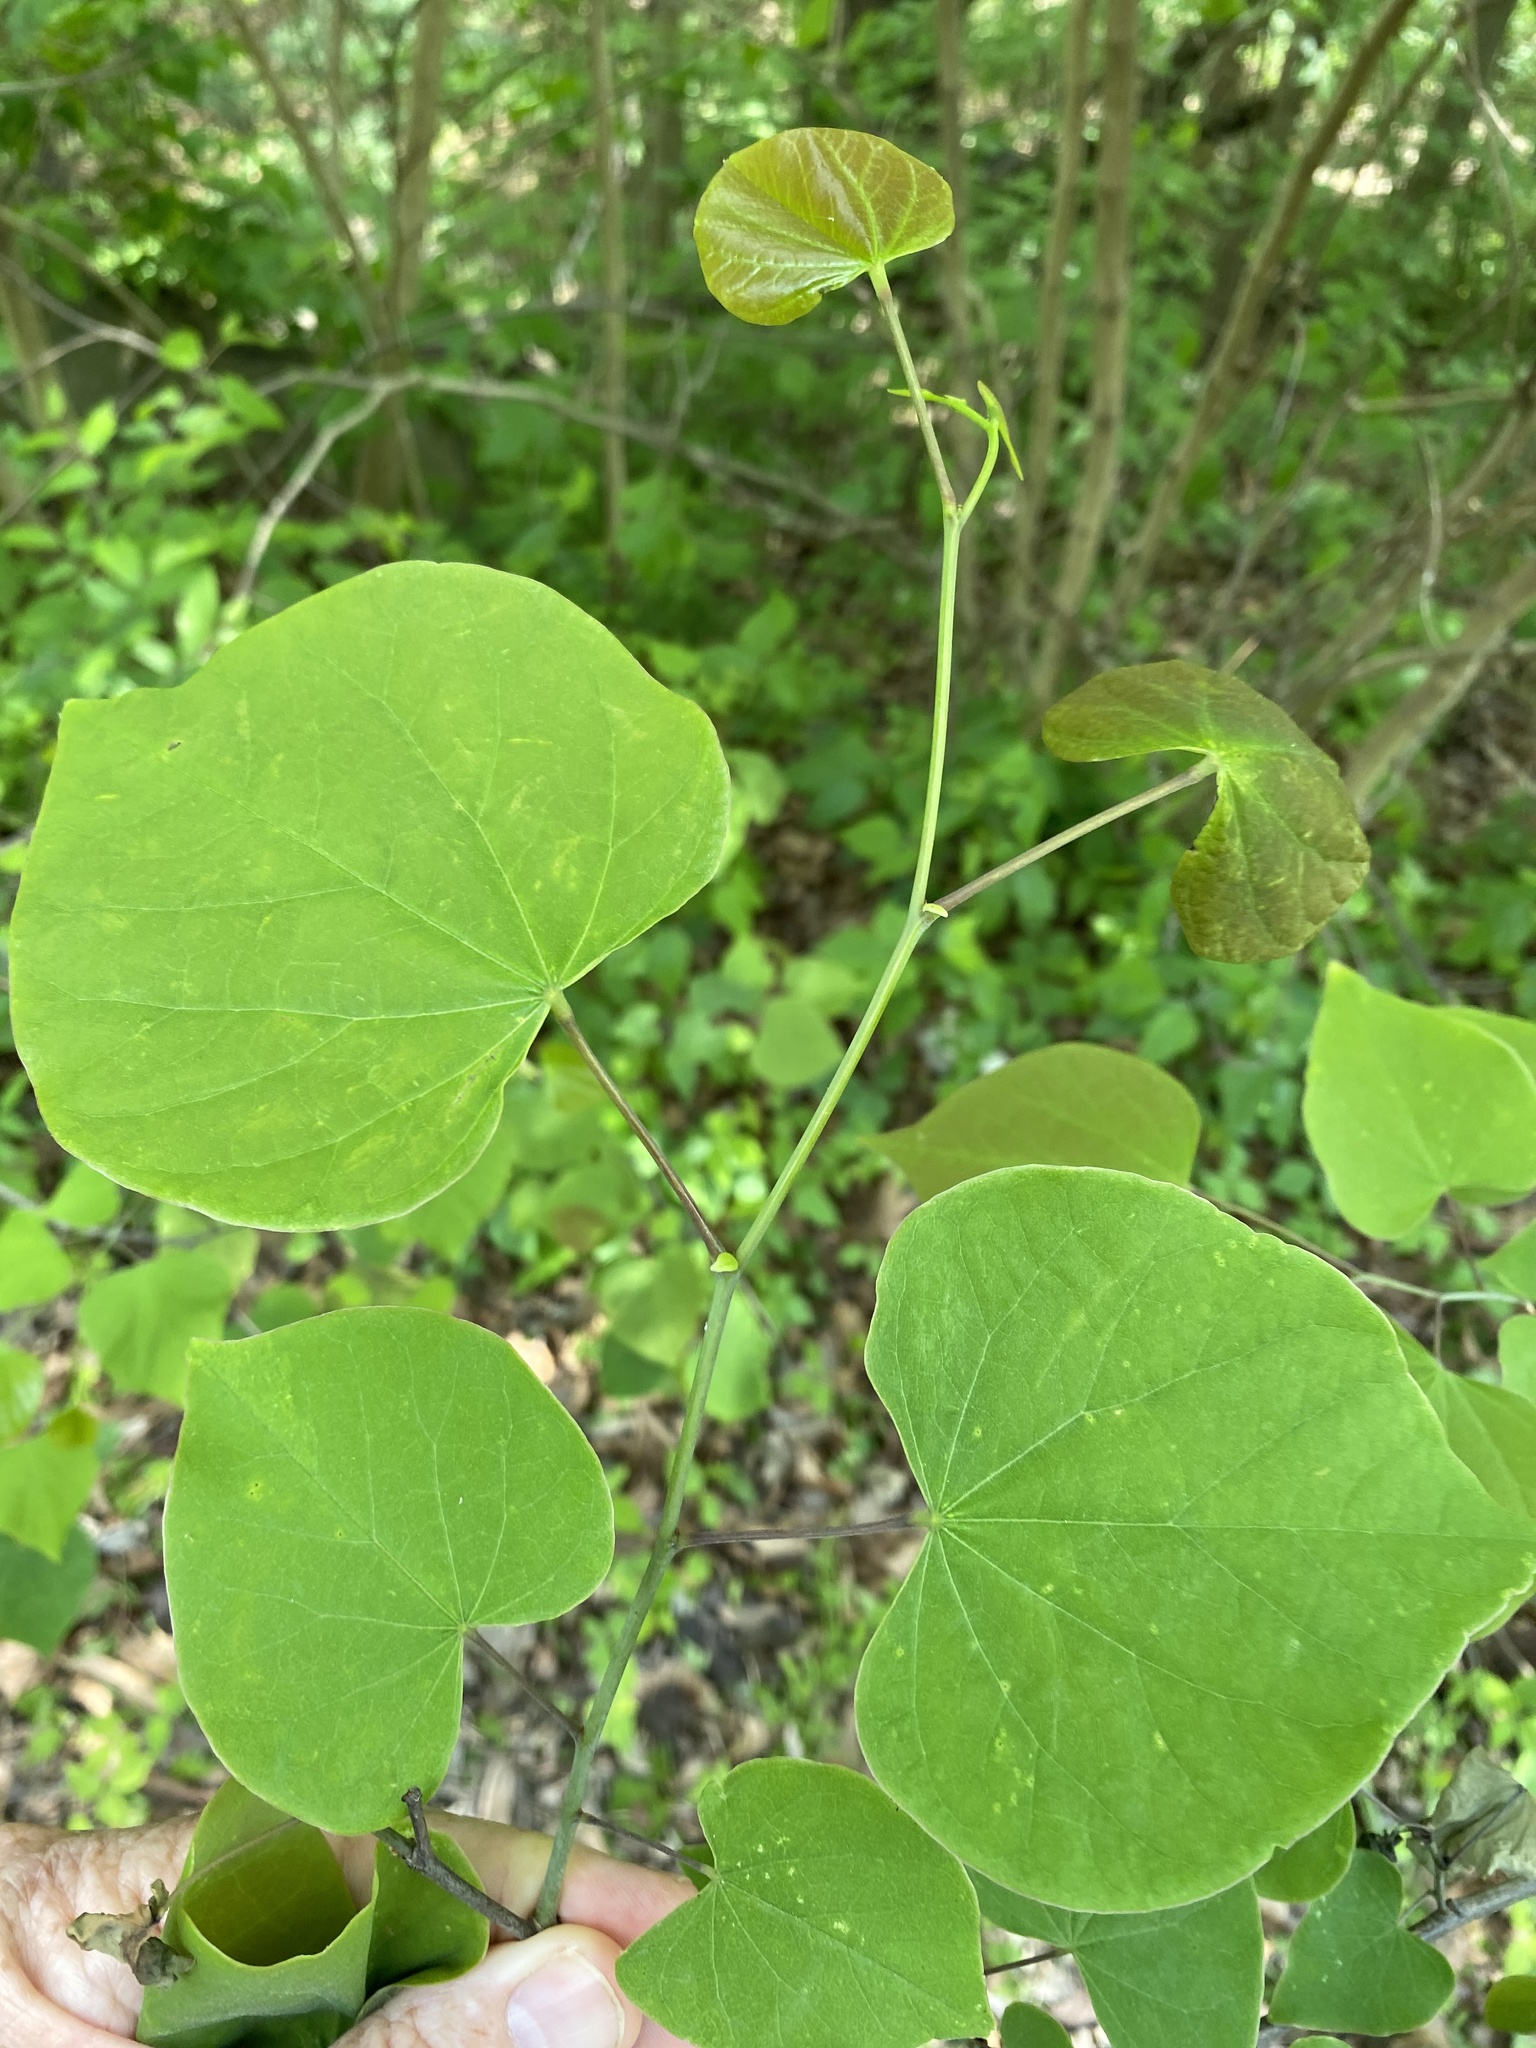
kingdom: Plantae
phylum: Tracheophyta
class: Magnoliopsida
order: Fabales
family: Fabaceae
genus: Cercis
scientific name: Cercis canadensis
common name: Eastern redbud
